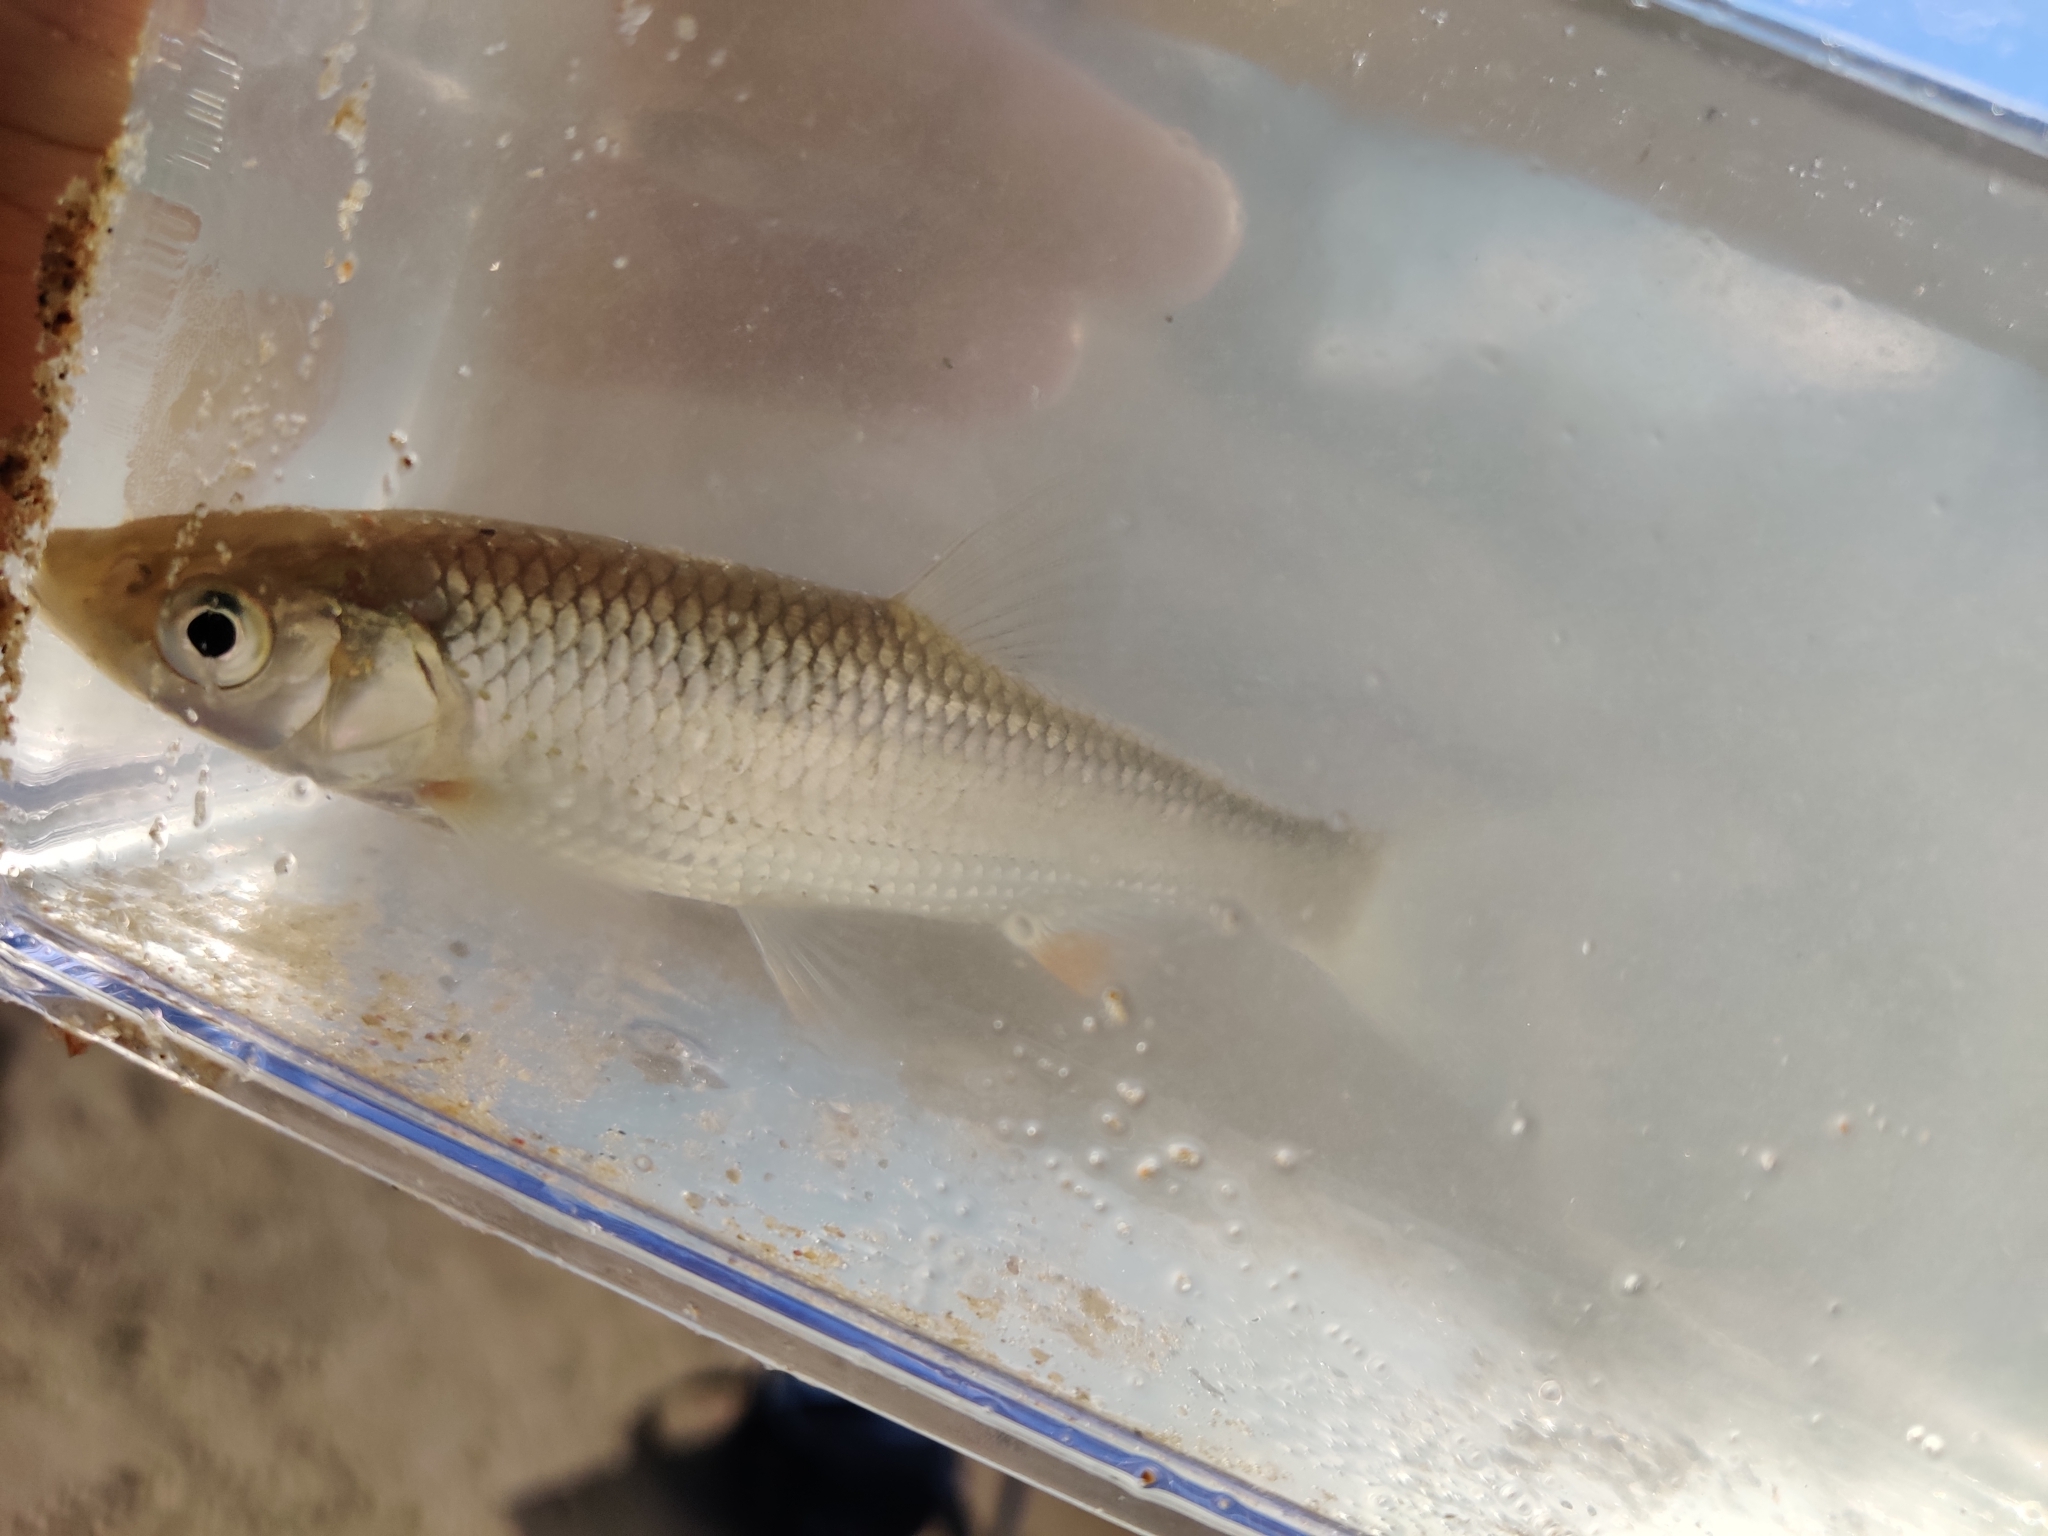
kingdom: Animalia
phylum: Chordata
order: Cypriniformes
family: Cyprinidae
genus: Squalius
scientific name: Squalius cephalus
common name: Chub
